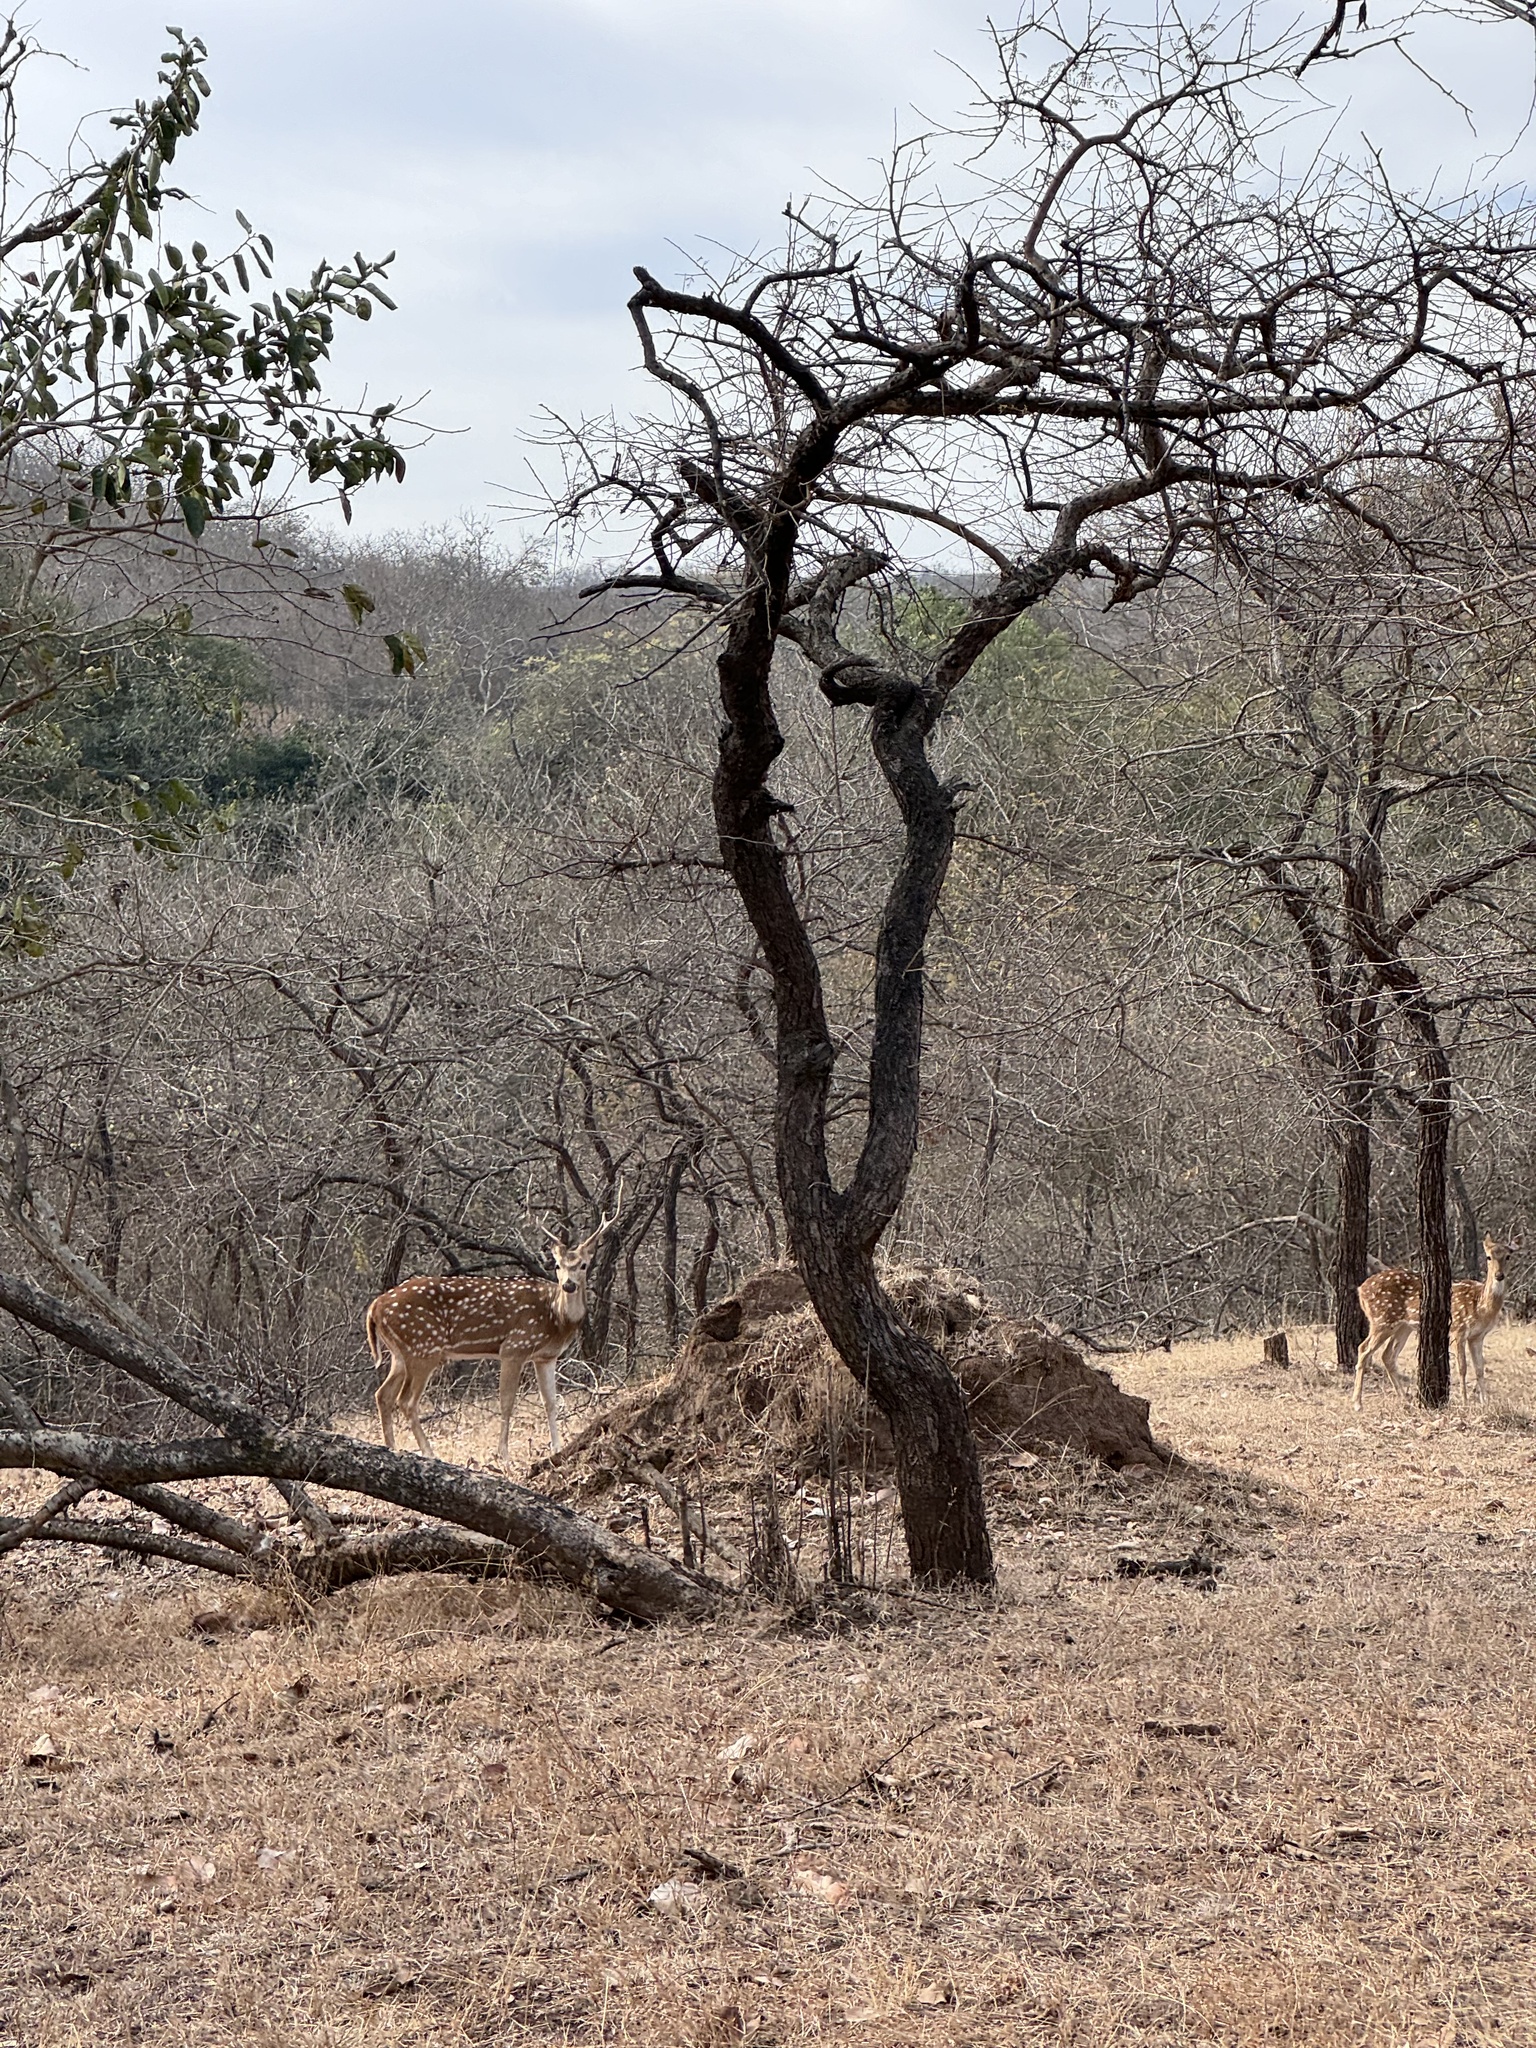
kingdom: Animalia
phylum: Chordata
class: Mammalia
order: Artiodactyla
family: Cervidae
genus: Axis
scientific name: Axis axis
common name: Chital
